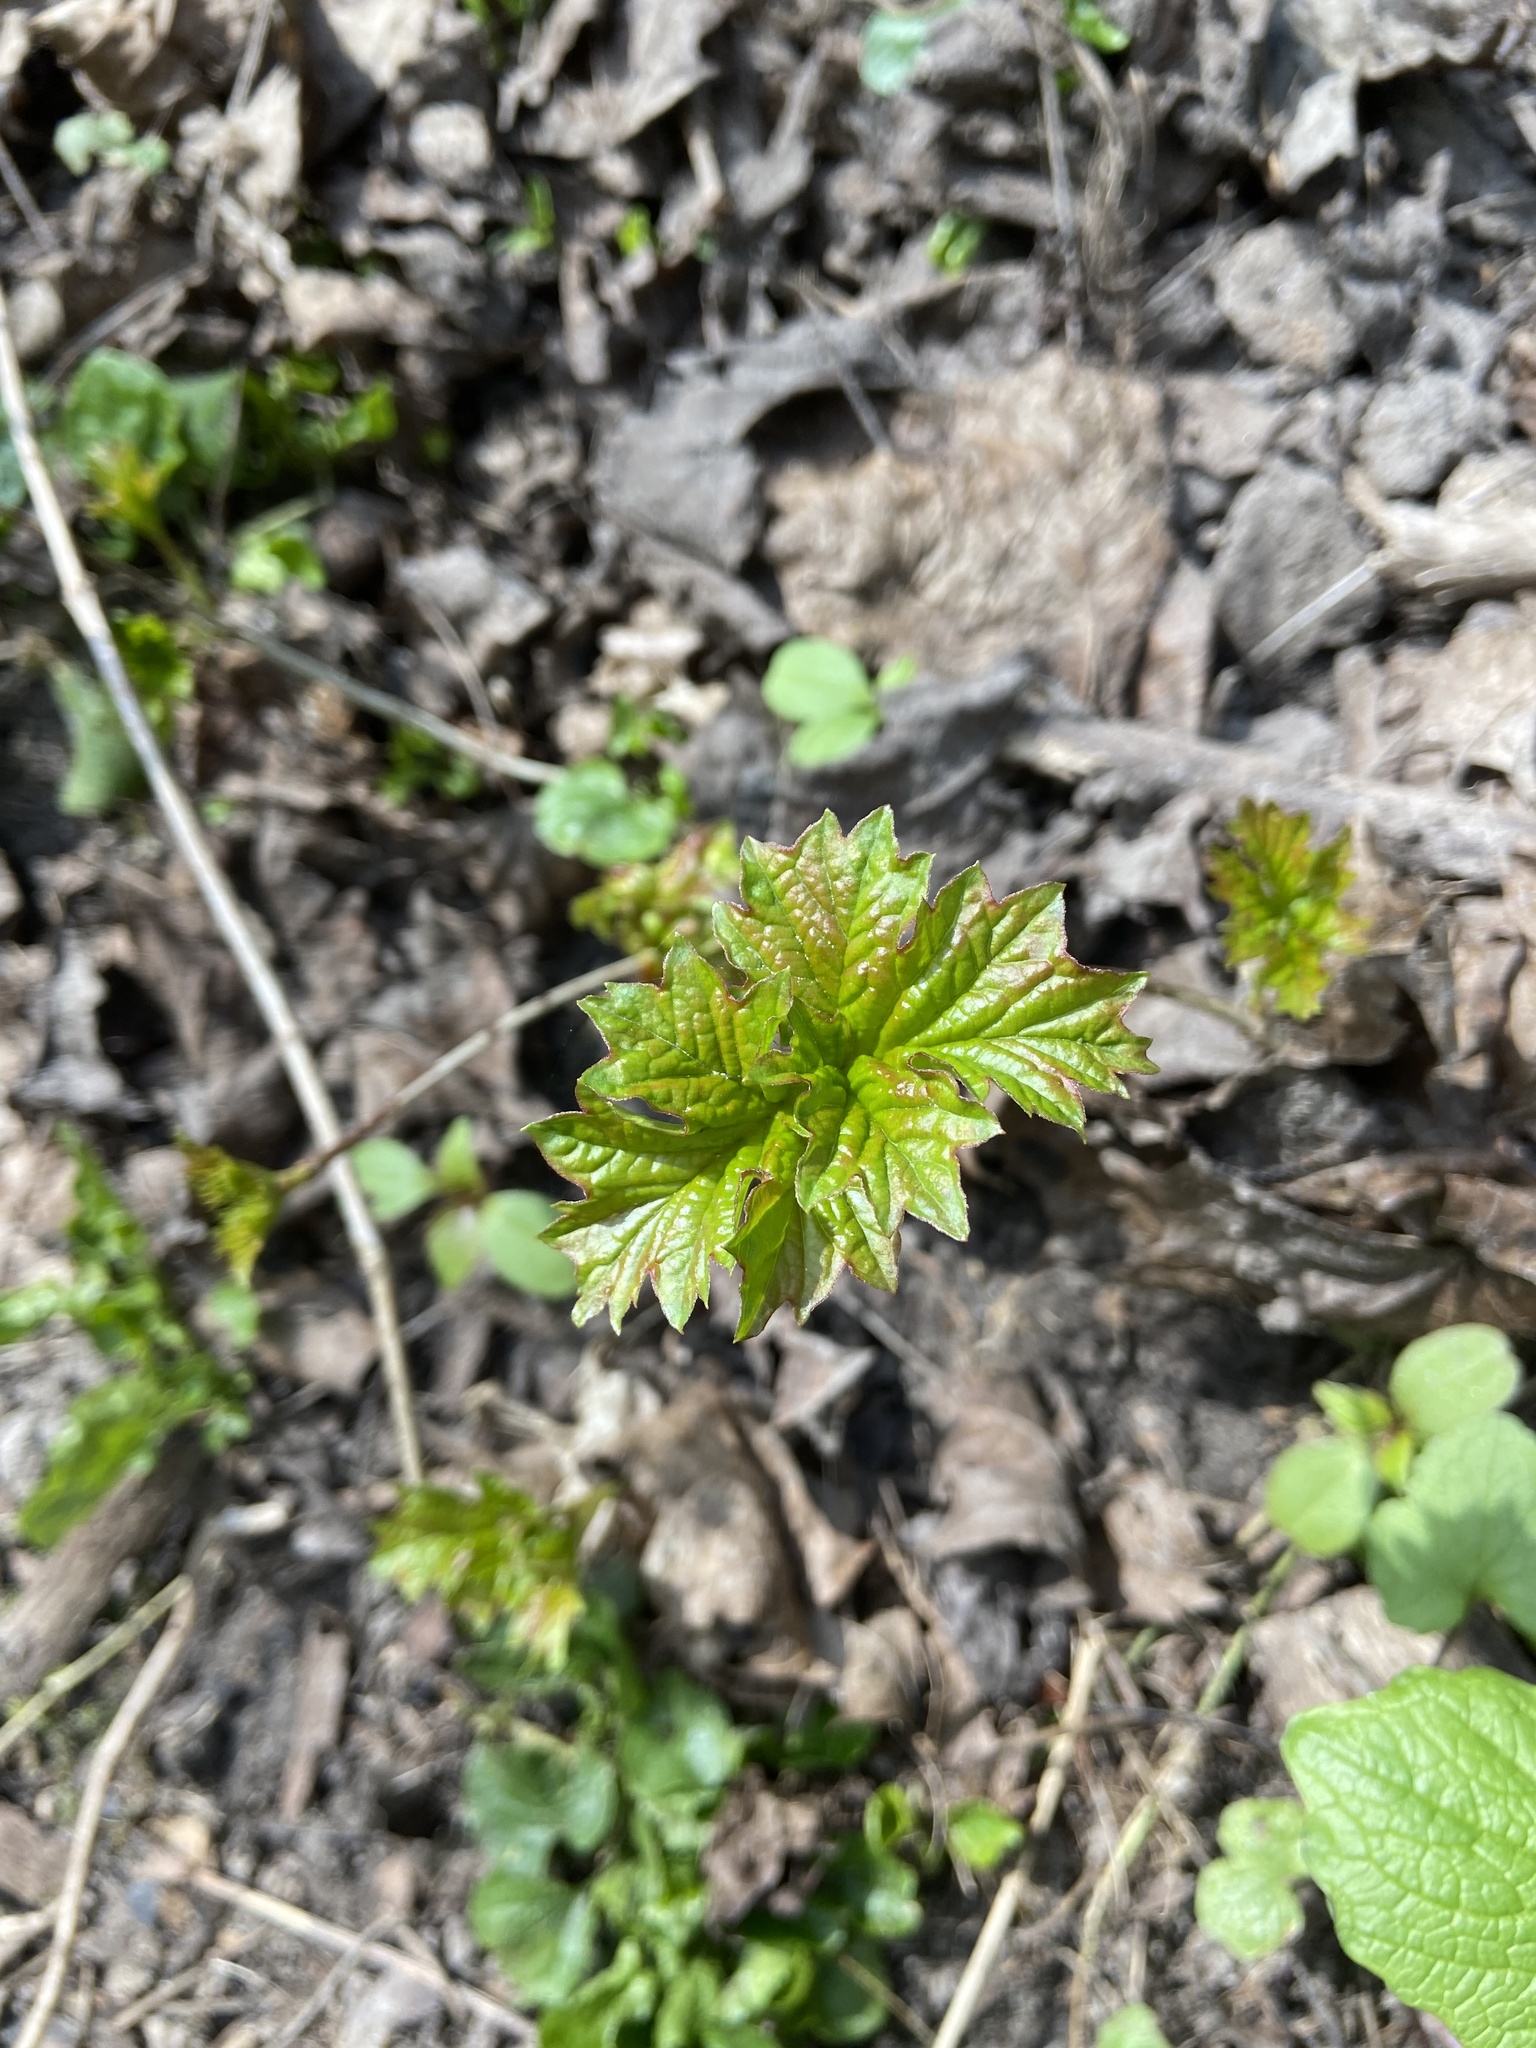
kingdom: Plantae
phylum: Tracheophyta
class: Magnoliopsida
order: Dipsacales
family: Viburnaceae
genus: Viburnum
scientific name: Viburnum opulus
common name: Guelder-rose
